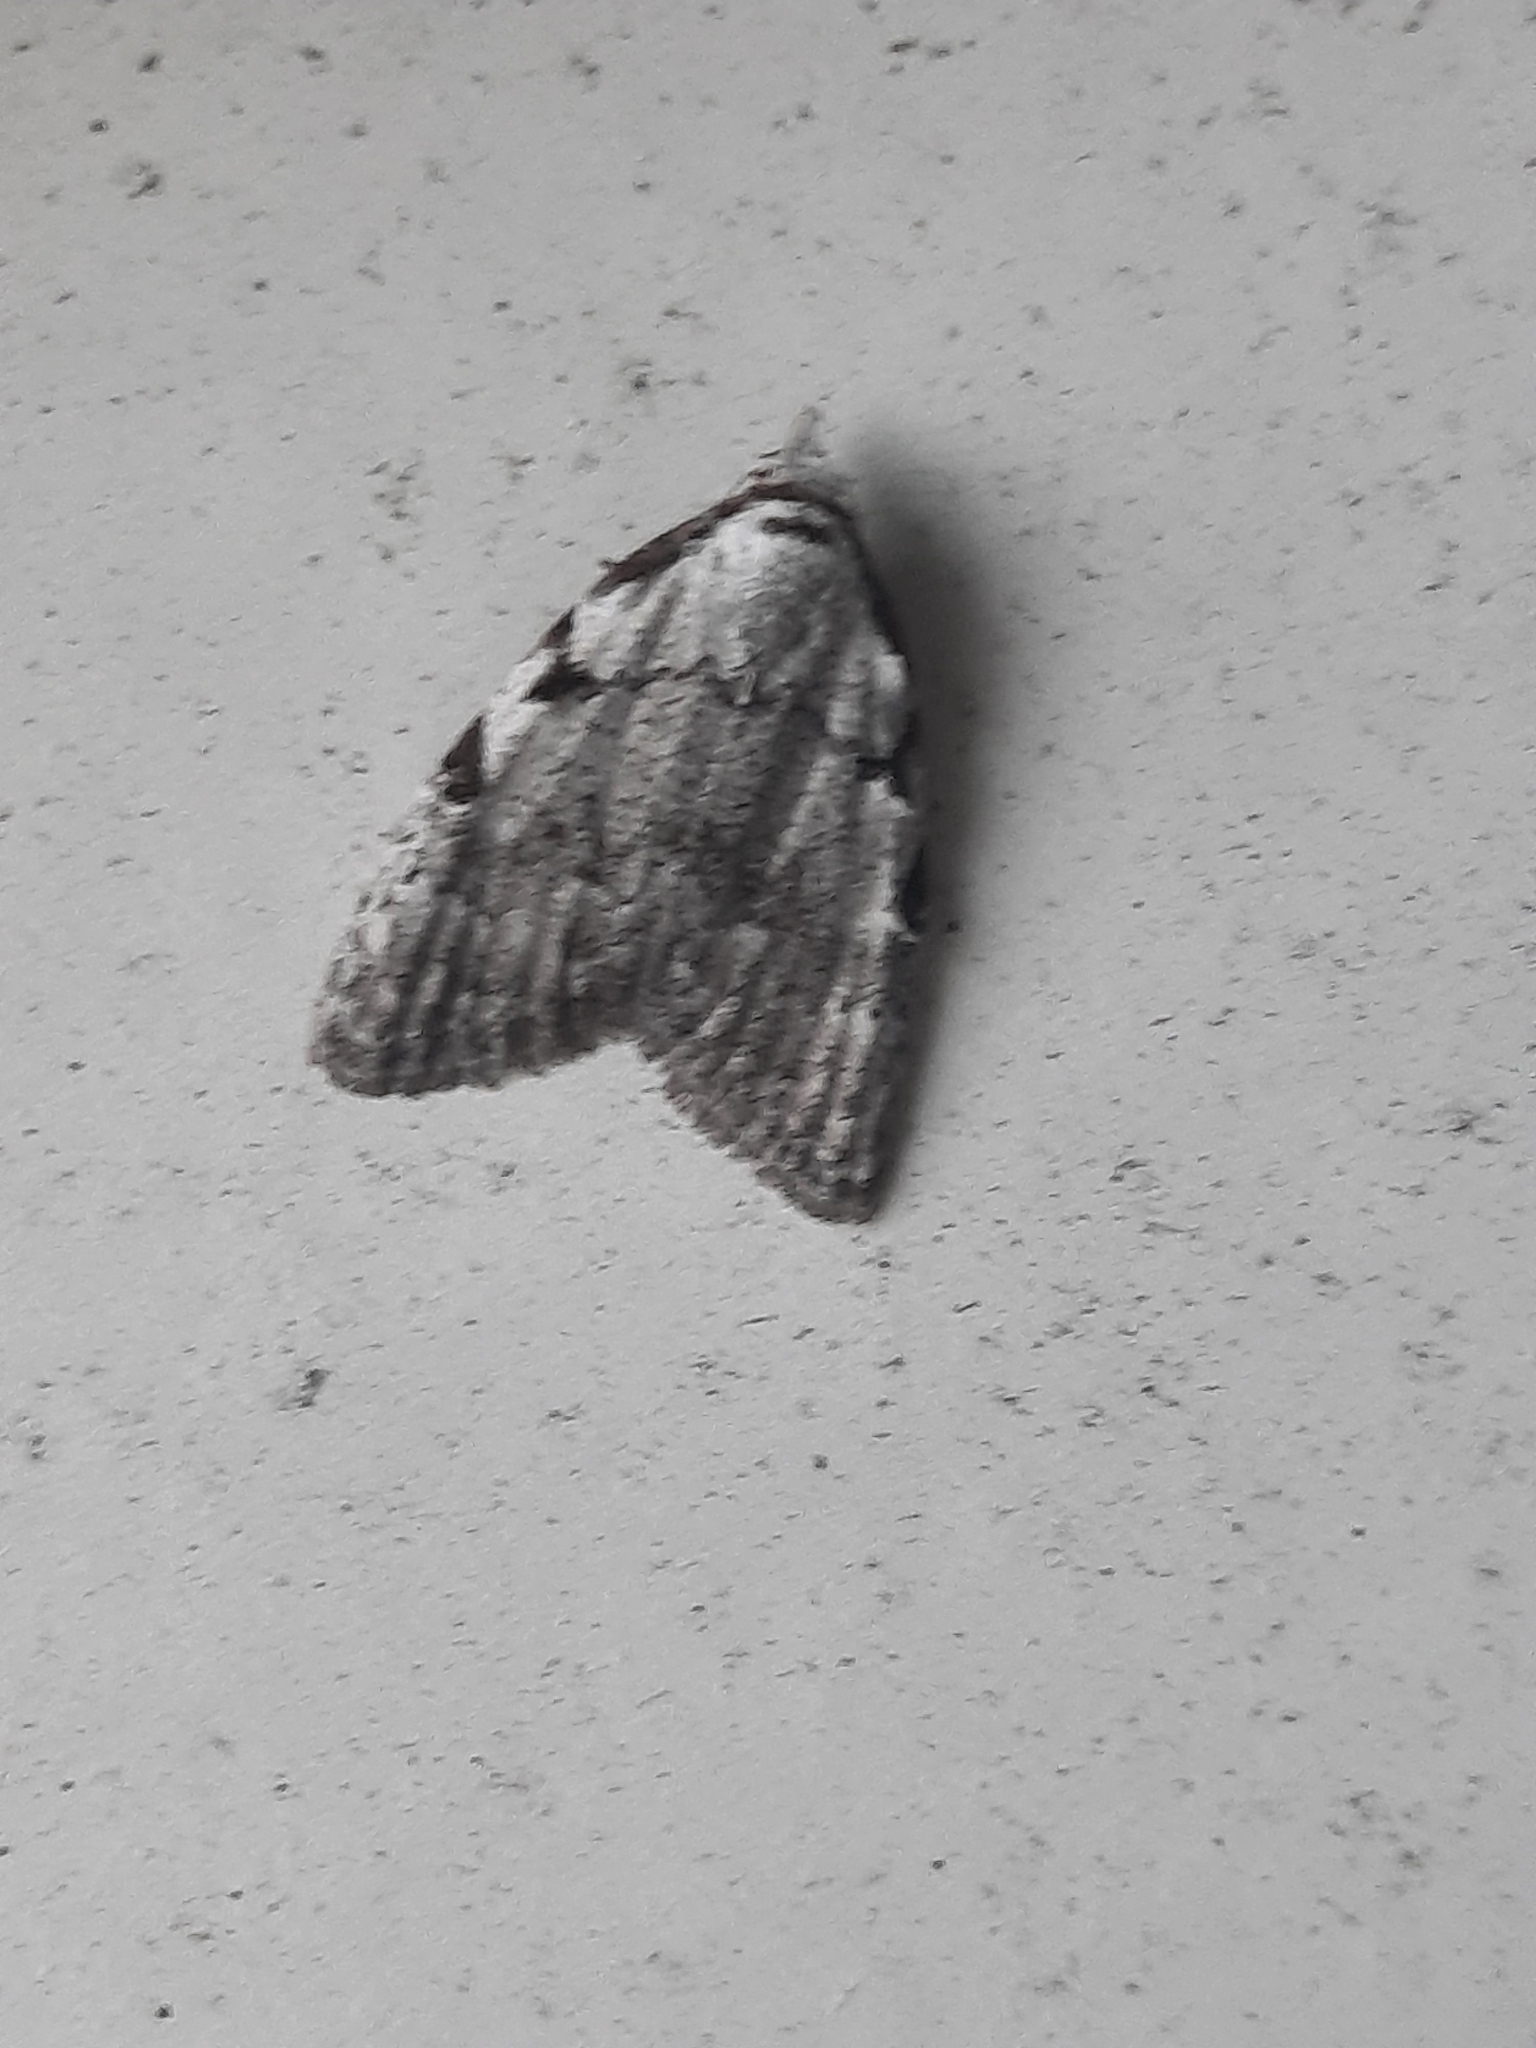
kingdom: Animalia
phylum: Arthropoda
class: Insecta
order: Lepidoptera
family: Nolidae
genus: Nola
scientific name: Nola triquetrana
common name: Three-spotted nola moth
